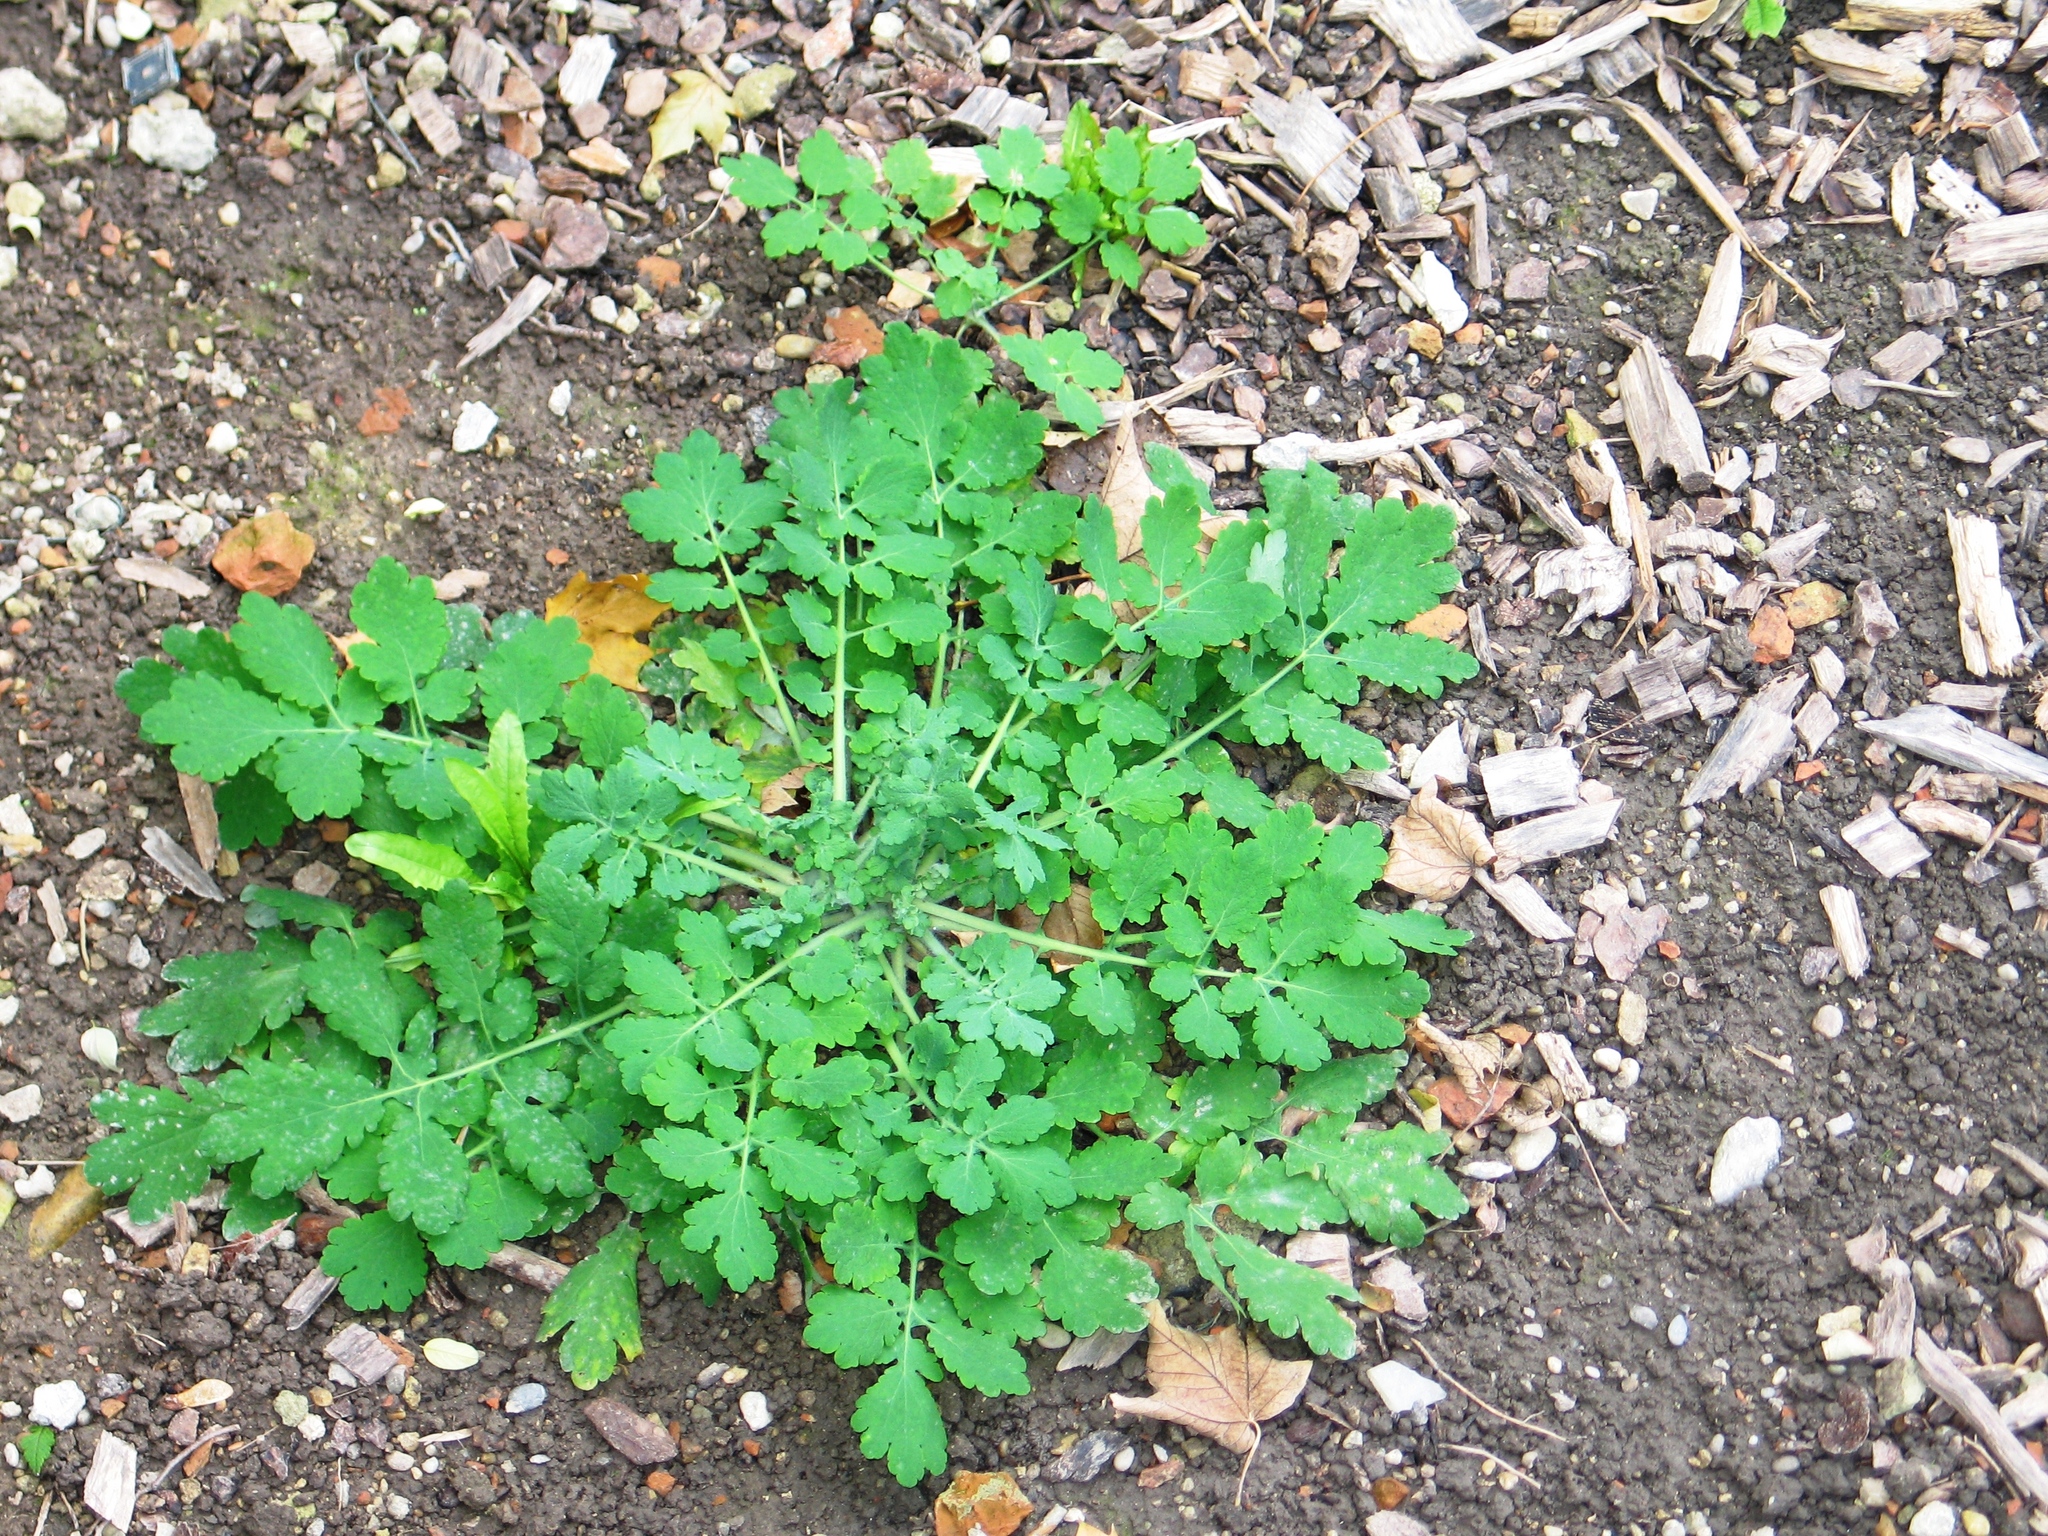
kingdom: Plantae
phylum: Tracheophyta
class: Magnoliopsida
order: Ranunculales
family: Papaveraceae
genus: Chelidonium
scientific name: Chelidonium majus
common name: Greater celandine
